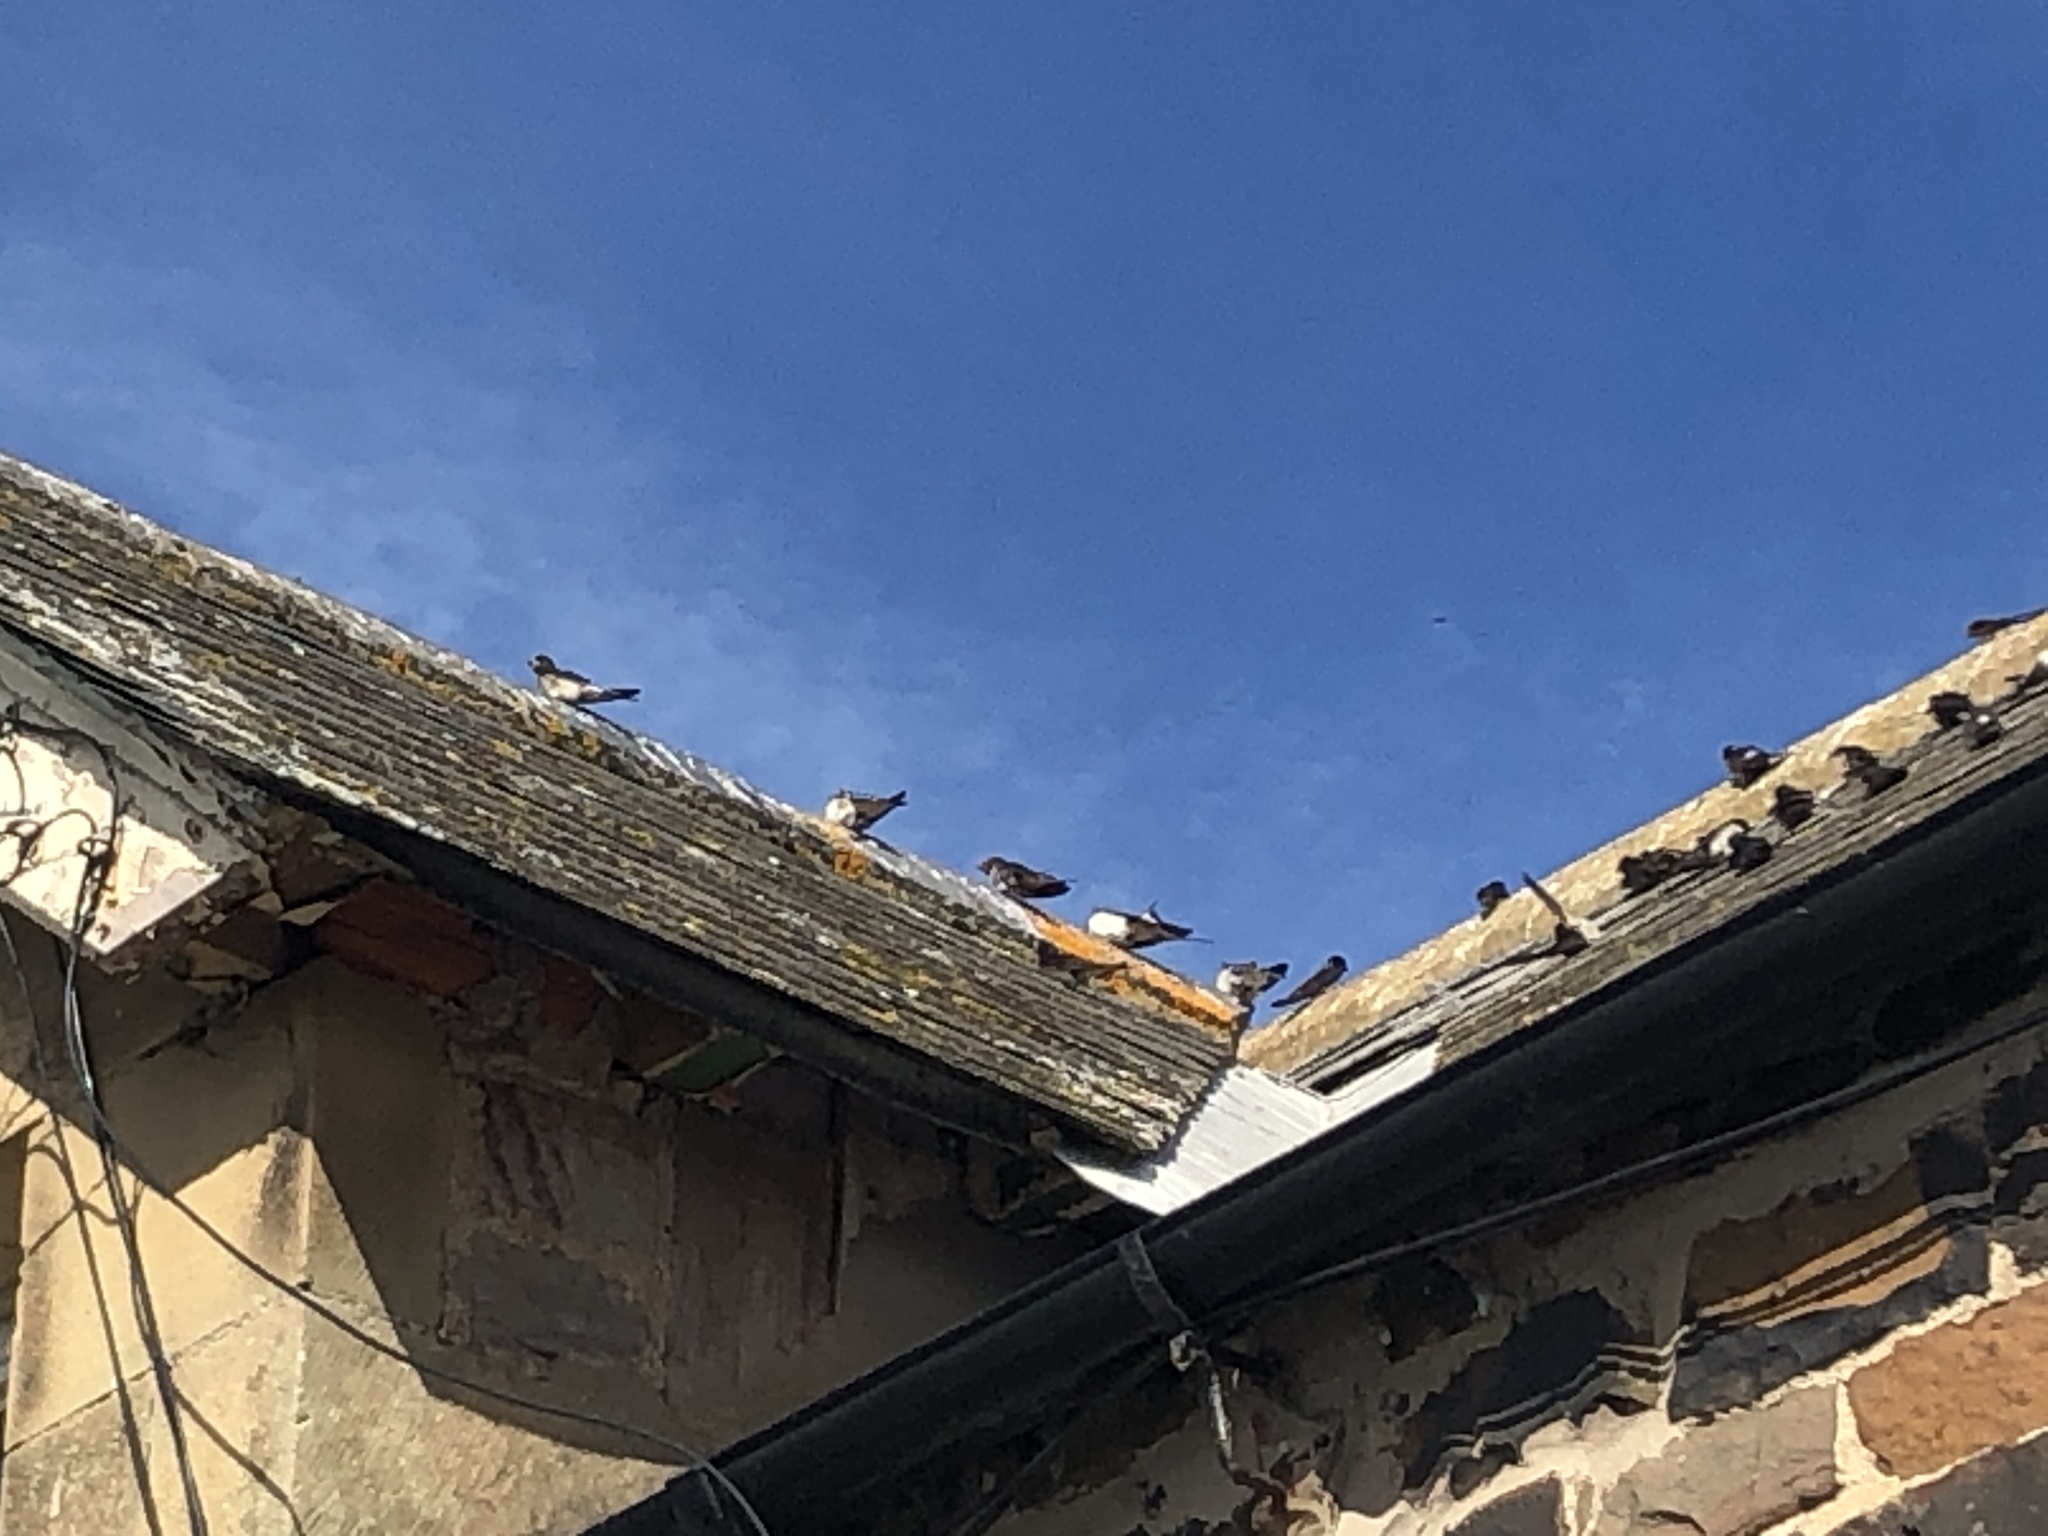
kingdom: Animalia
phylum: Chordata
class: Aves
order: Passeriformes
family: Hirundinidae
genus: Hirundo
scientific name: Hirundo rustica
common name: Barn swallow
